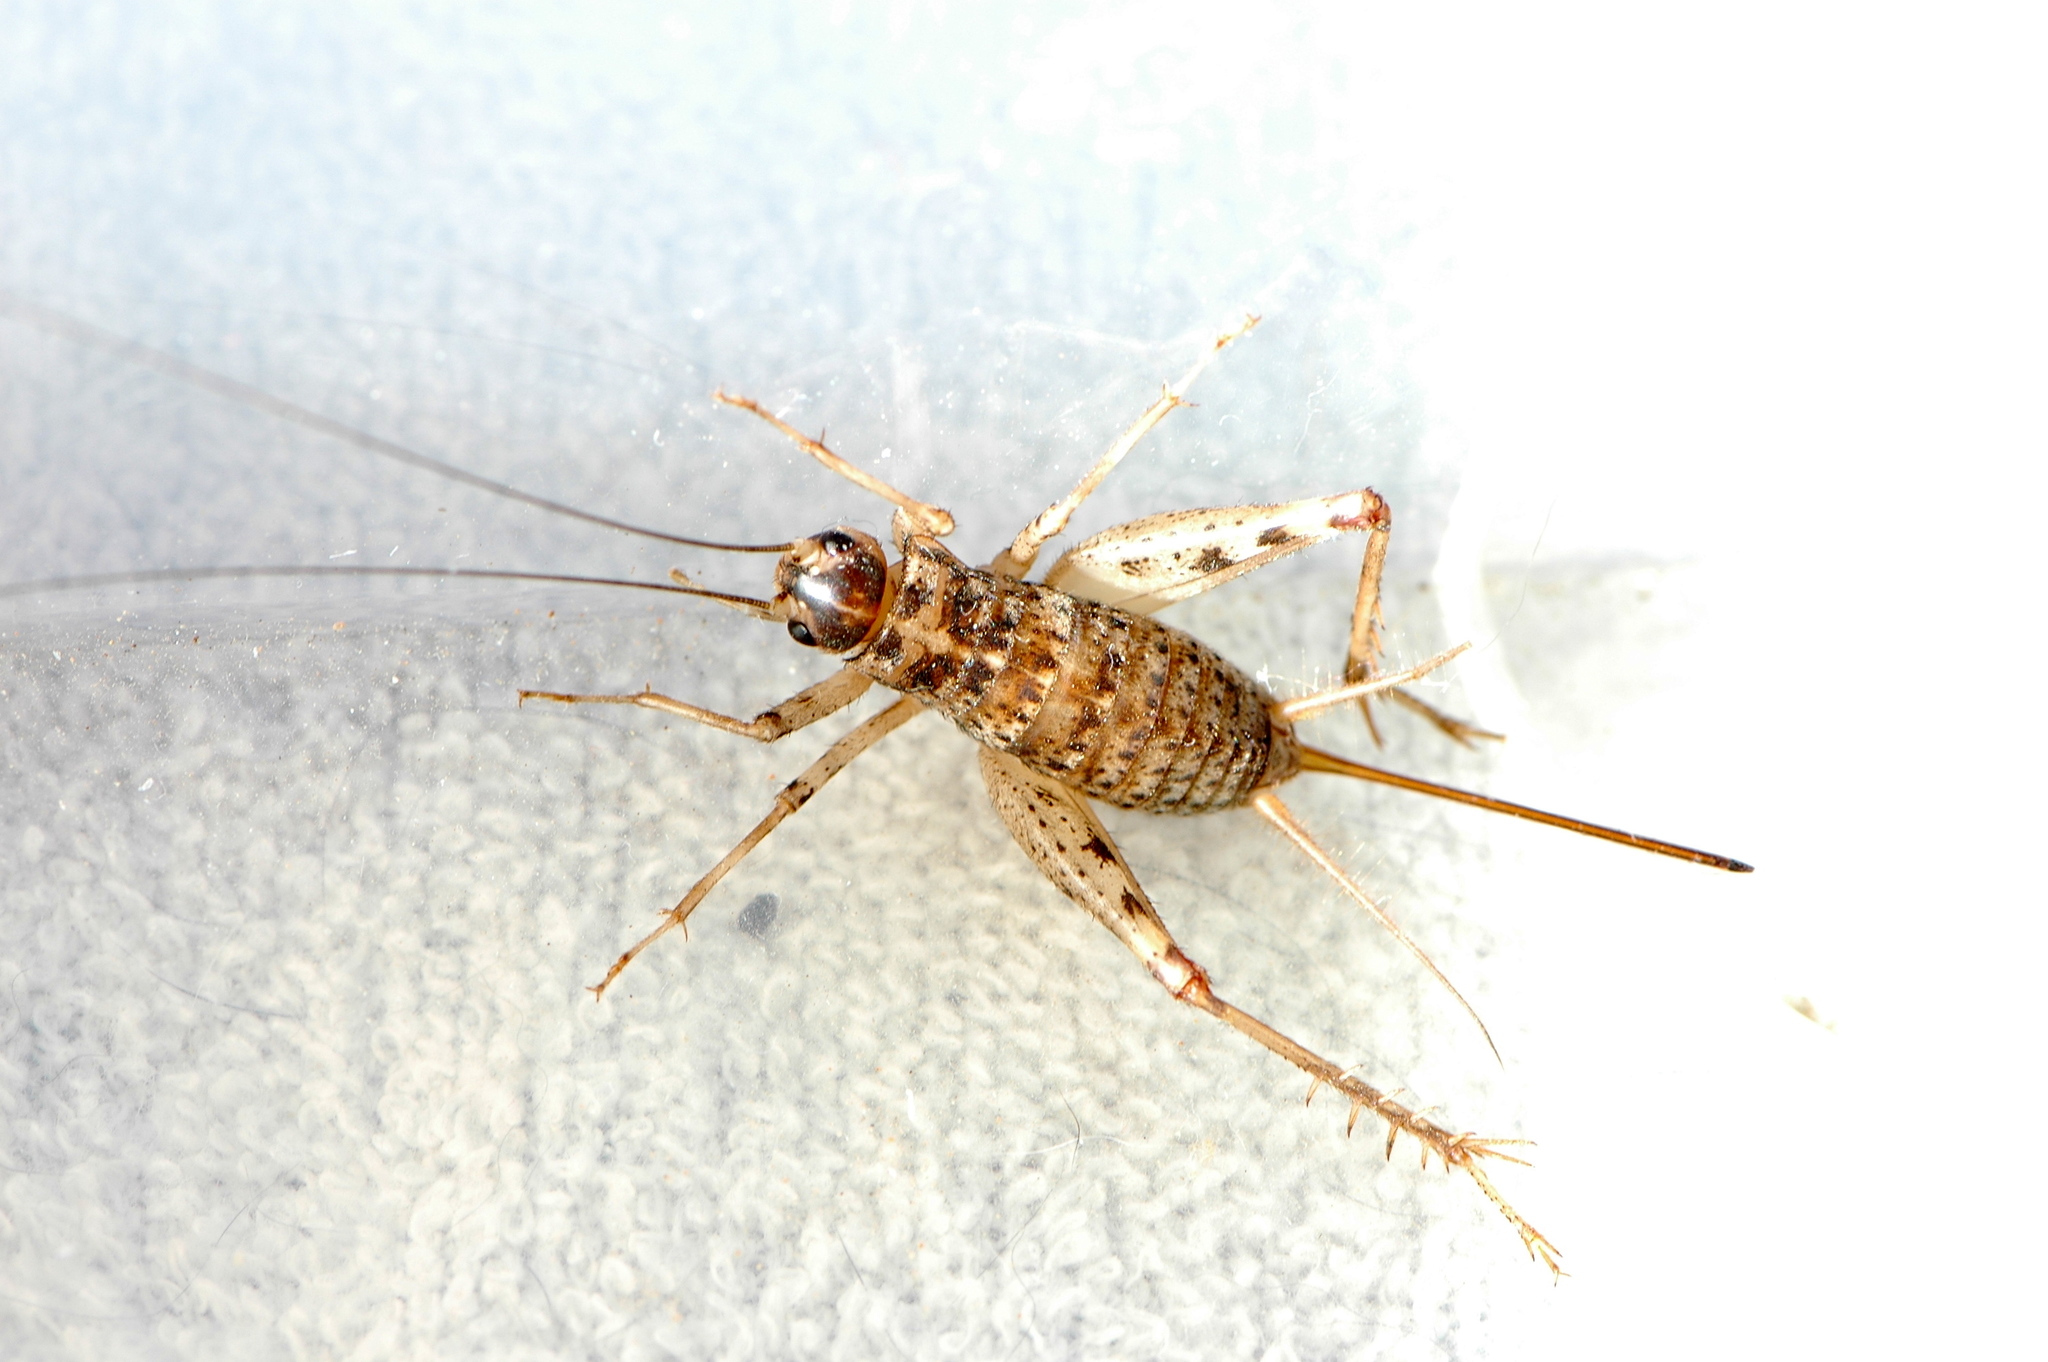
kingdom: Animalia
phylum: Arthropoda
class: Insecta
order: Orthoptera
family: Gryllidae
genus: Gryllomorpha
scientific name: Gryllomorpha longicauda
